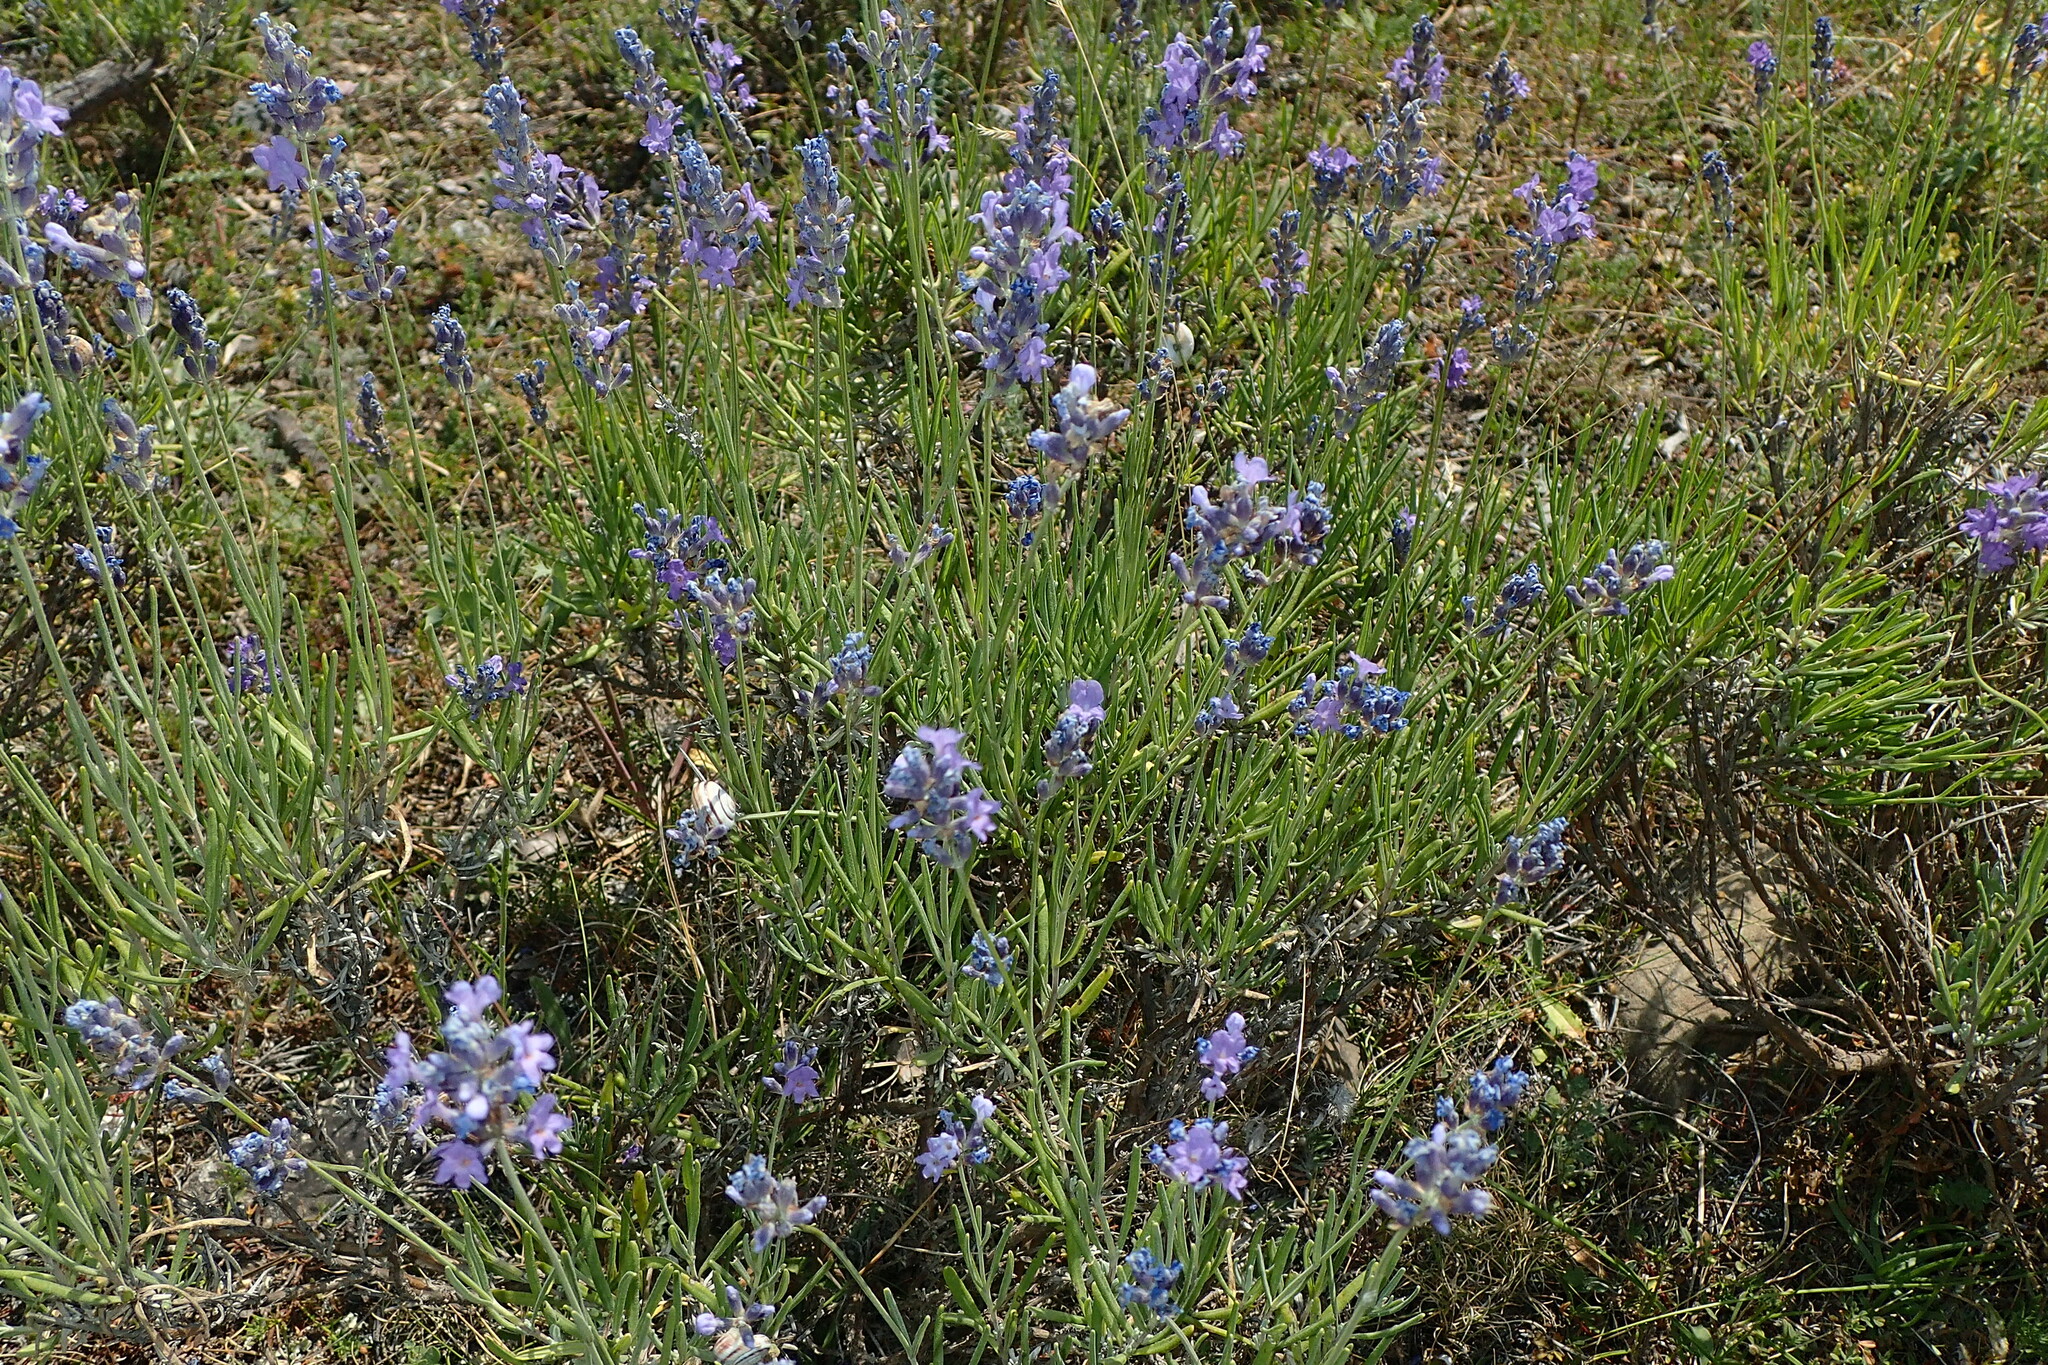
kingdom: Plantae
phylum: Tracheophyta
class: Magnoliopsida
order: Lamiales
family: Lamiaceae
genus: Lavandula
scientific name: Lavandula angustifolia
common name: Garden lavender
